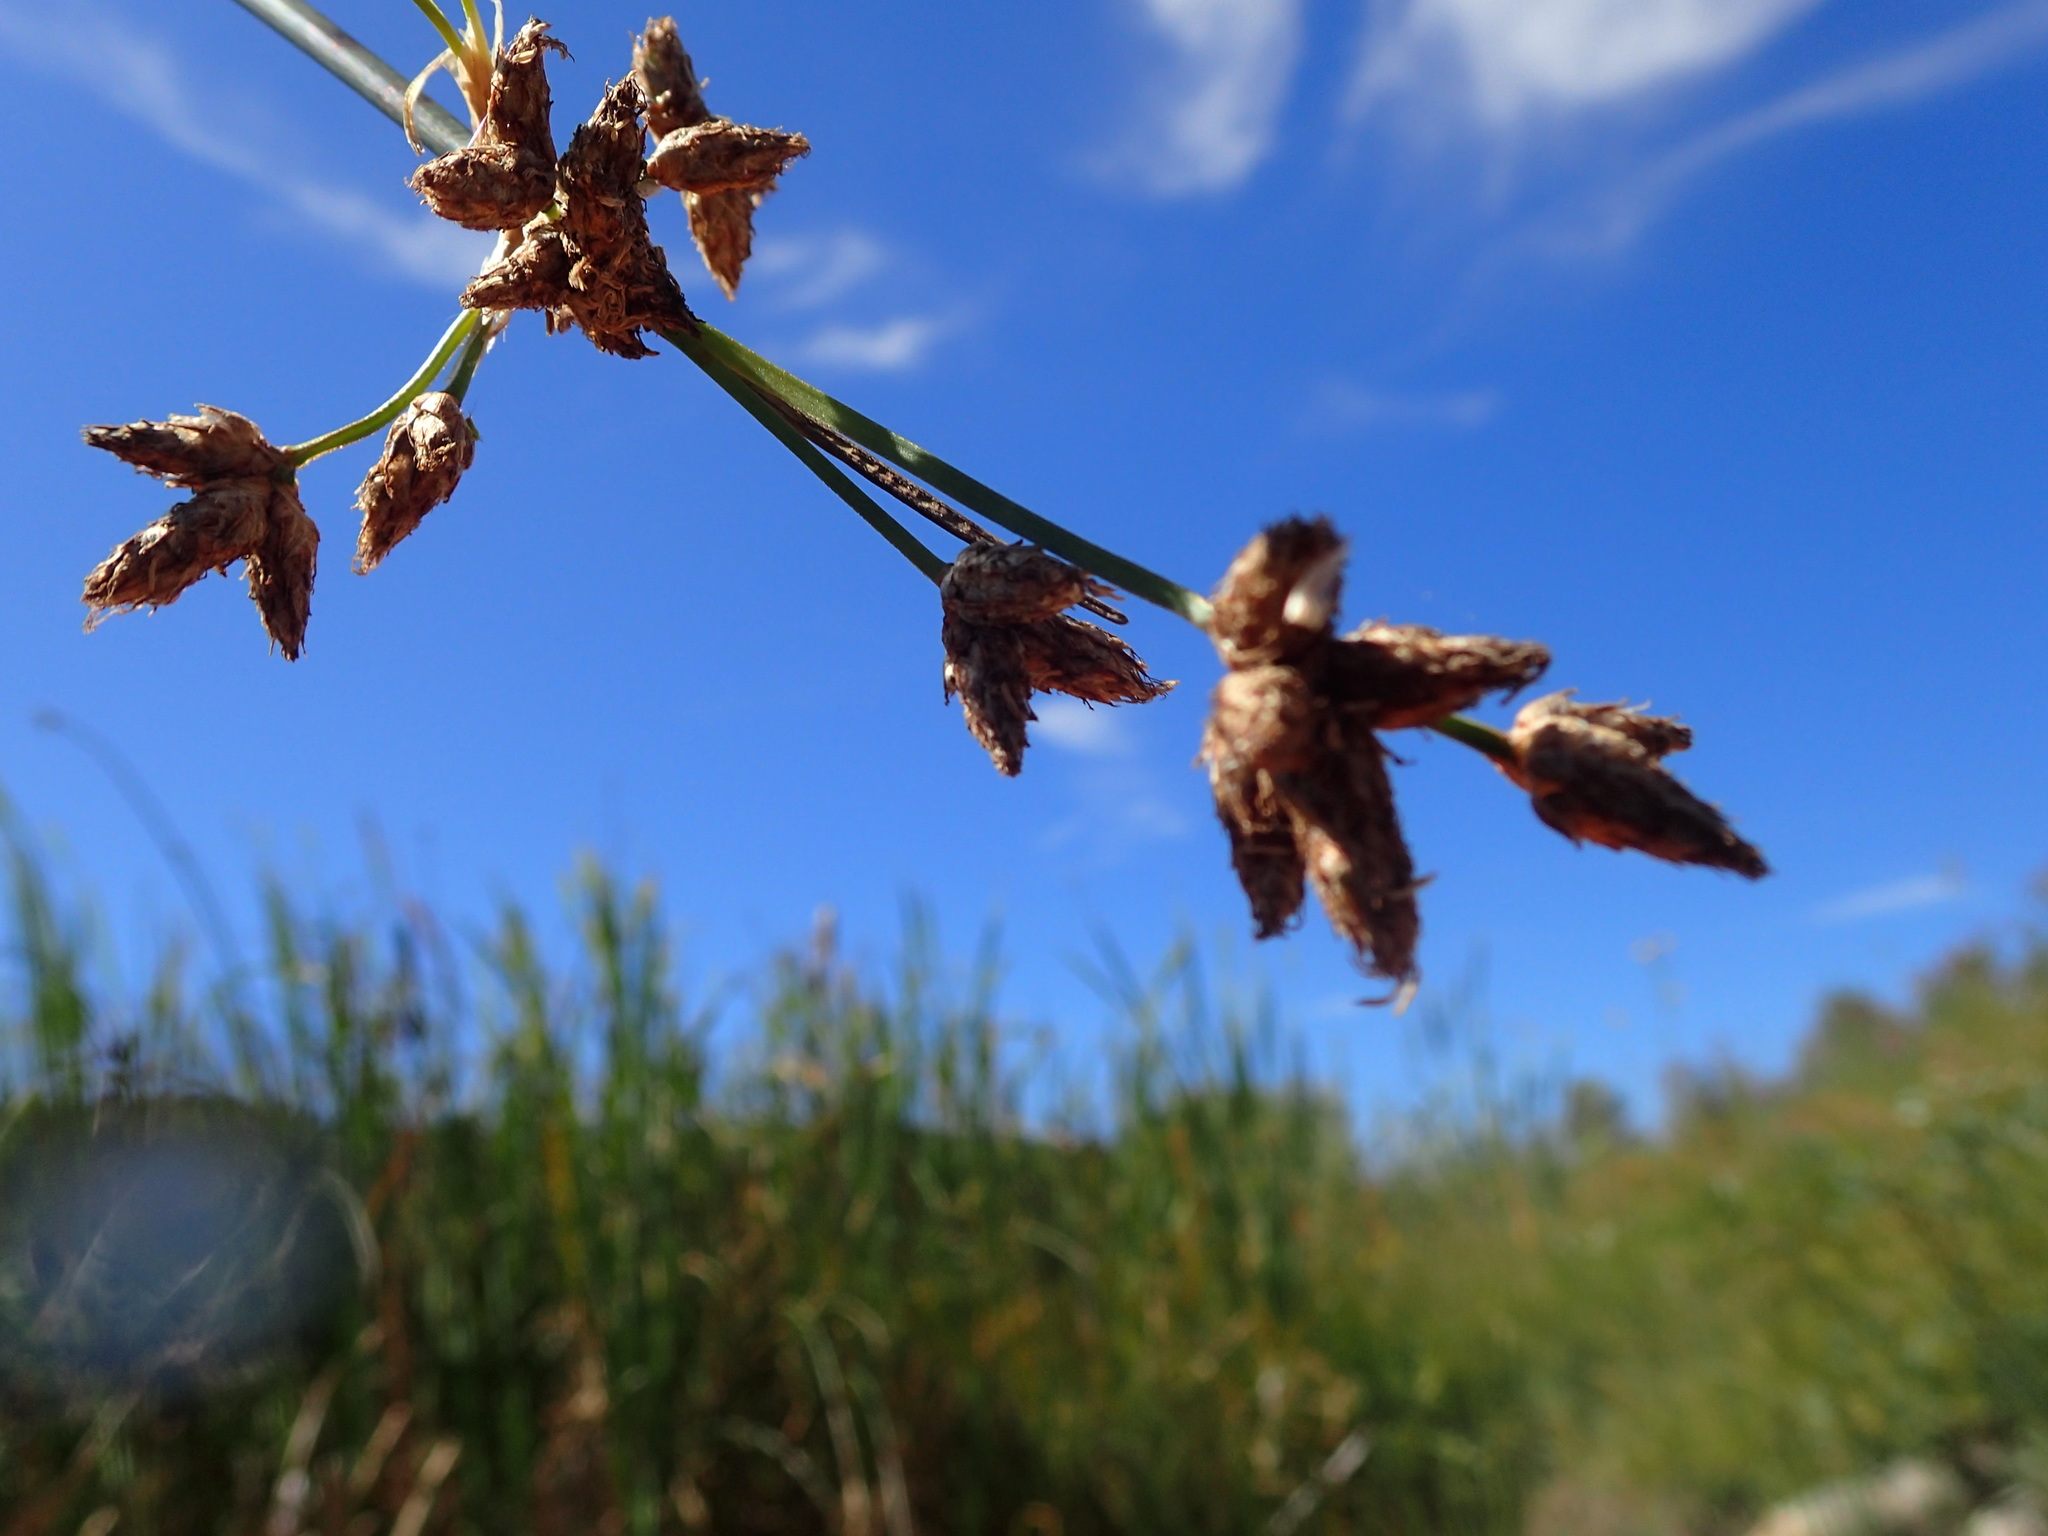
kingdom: Plantae
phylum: Tracheophyta
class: Liliopsida
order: Poales
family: Cyperaceae
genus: Schoenoplectus
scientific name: Schoenoplectus acutus
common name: Hardstem bulrush
